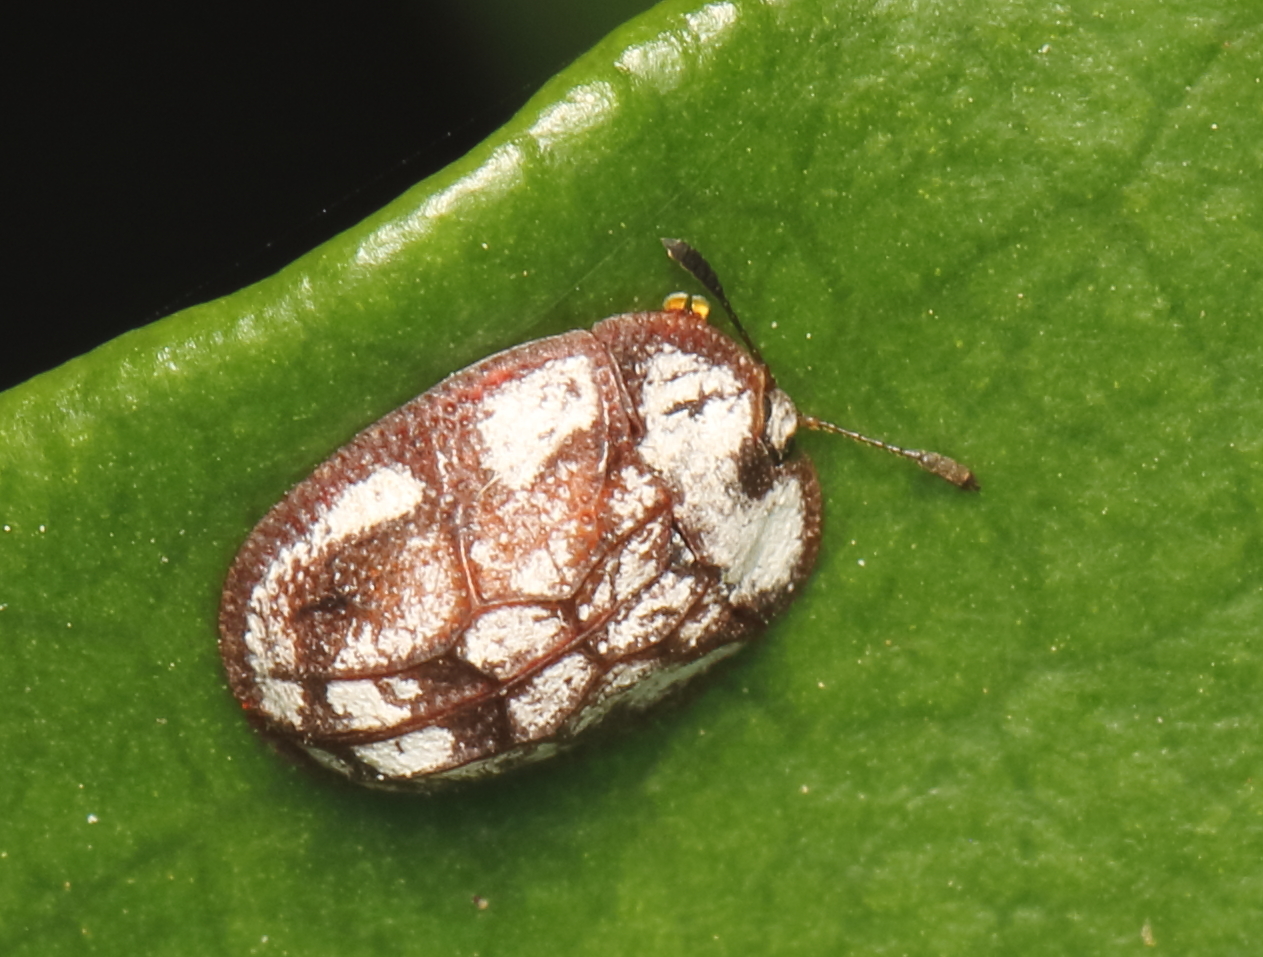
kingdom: Animalia
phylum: Arthropoda
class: Insecta
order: Coleoptera
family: Chrysomelidae
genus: Notosacantha
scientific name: Notosacantha badia
